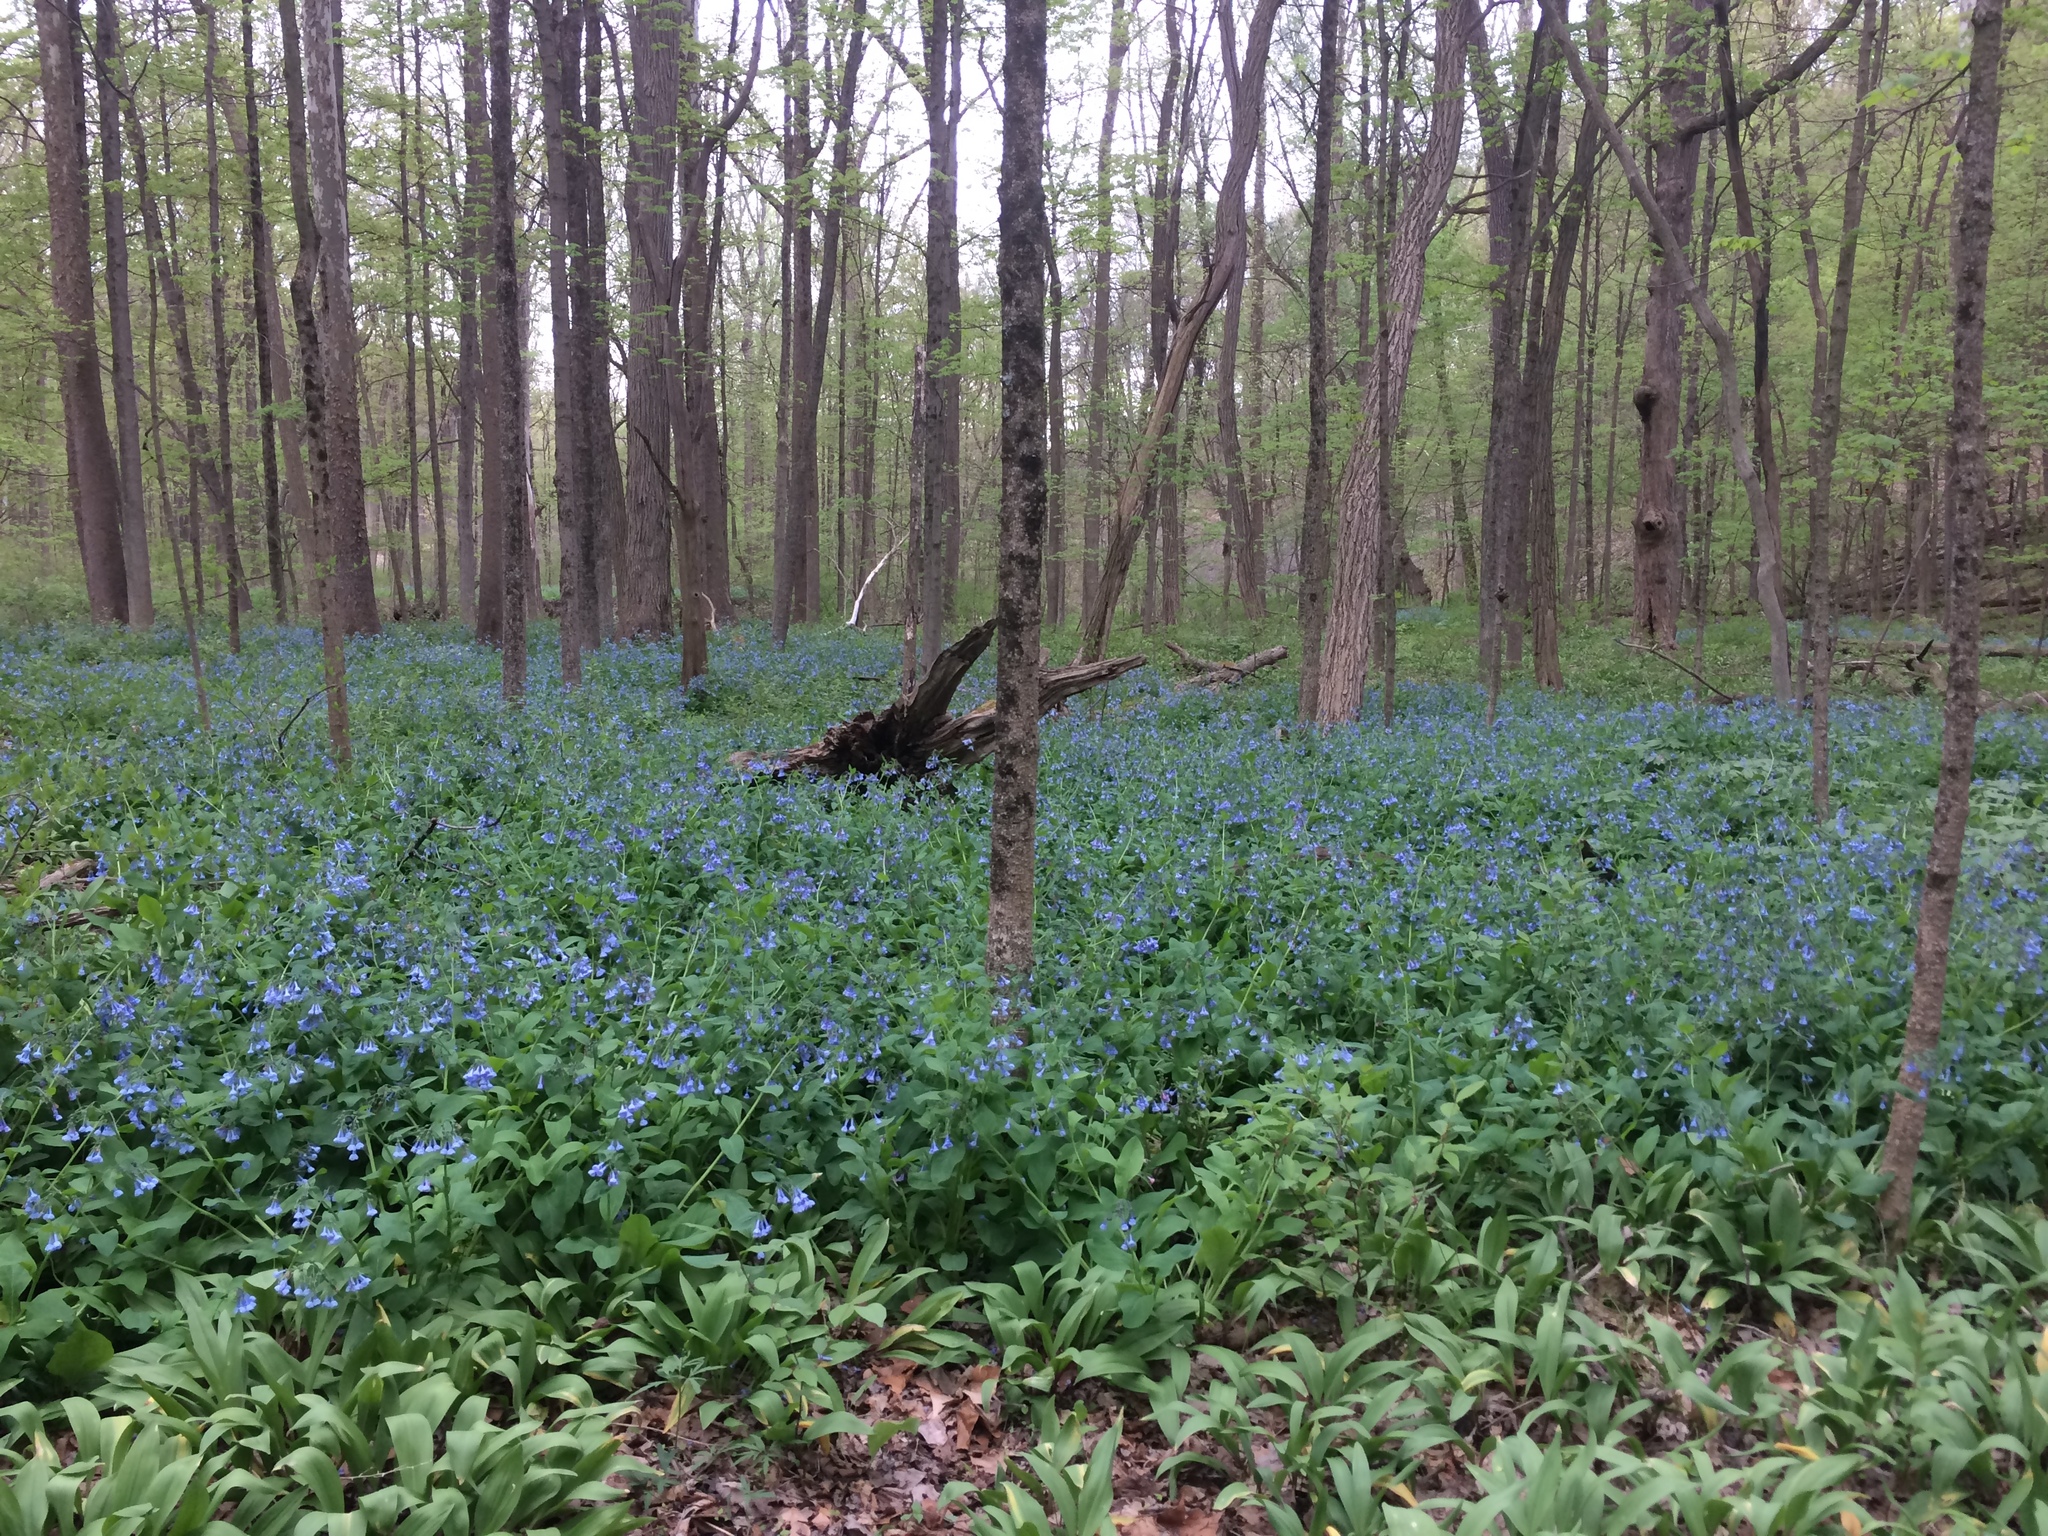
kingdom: Plantae
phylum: Tracheophyta
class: Magnoliopsida
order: Boraginales
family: Boraginaceae
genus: Mertensia
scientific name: Mertensia virginica
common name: Virginia bluebells
